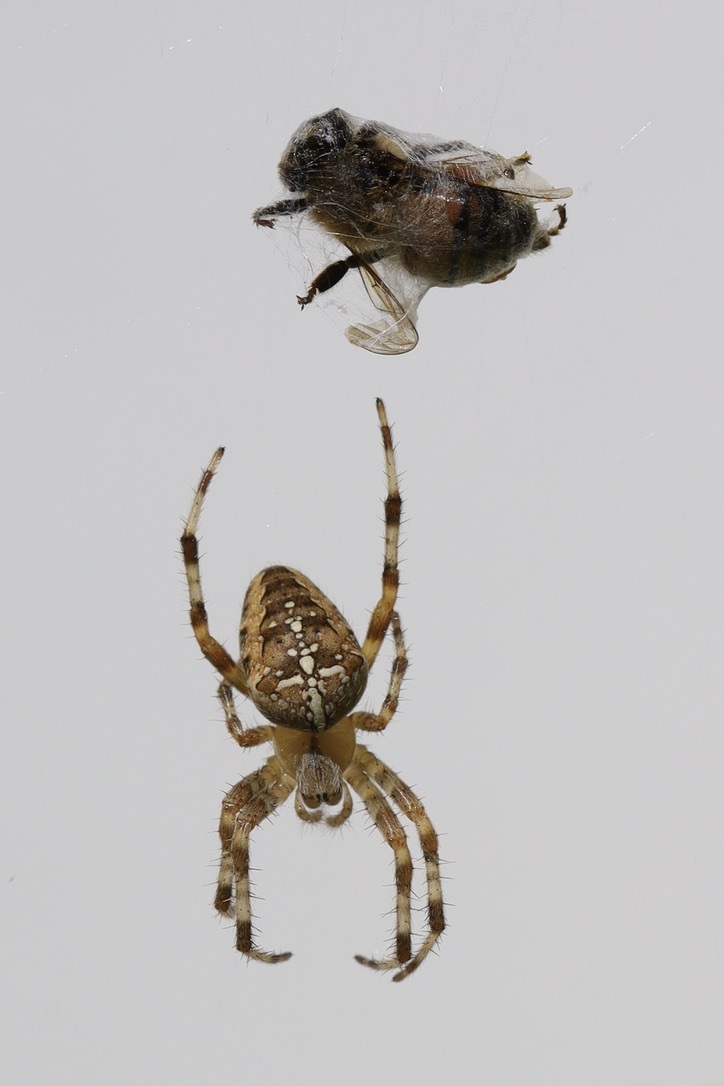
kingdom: Animalia
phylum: Arthropoda
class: Insecta
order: Hymenoptera
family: Apidae
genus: Apis
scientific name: Apis mellifera
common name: Honey bee
